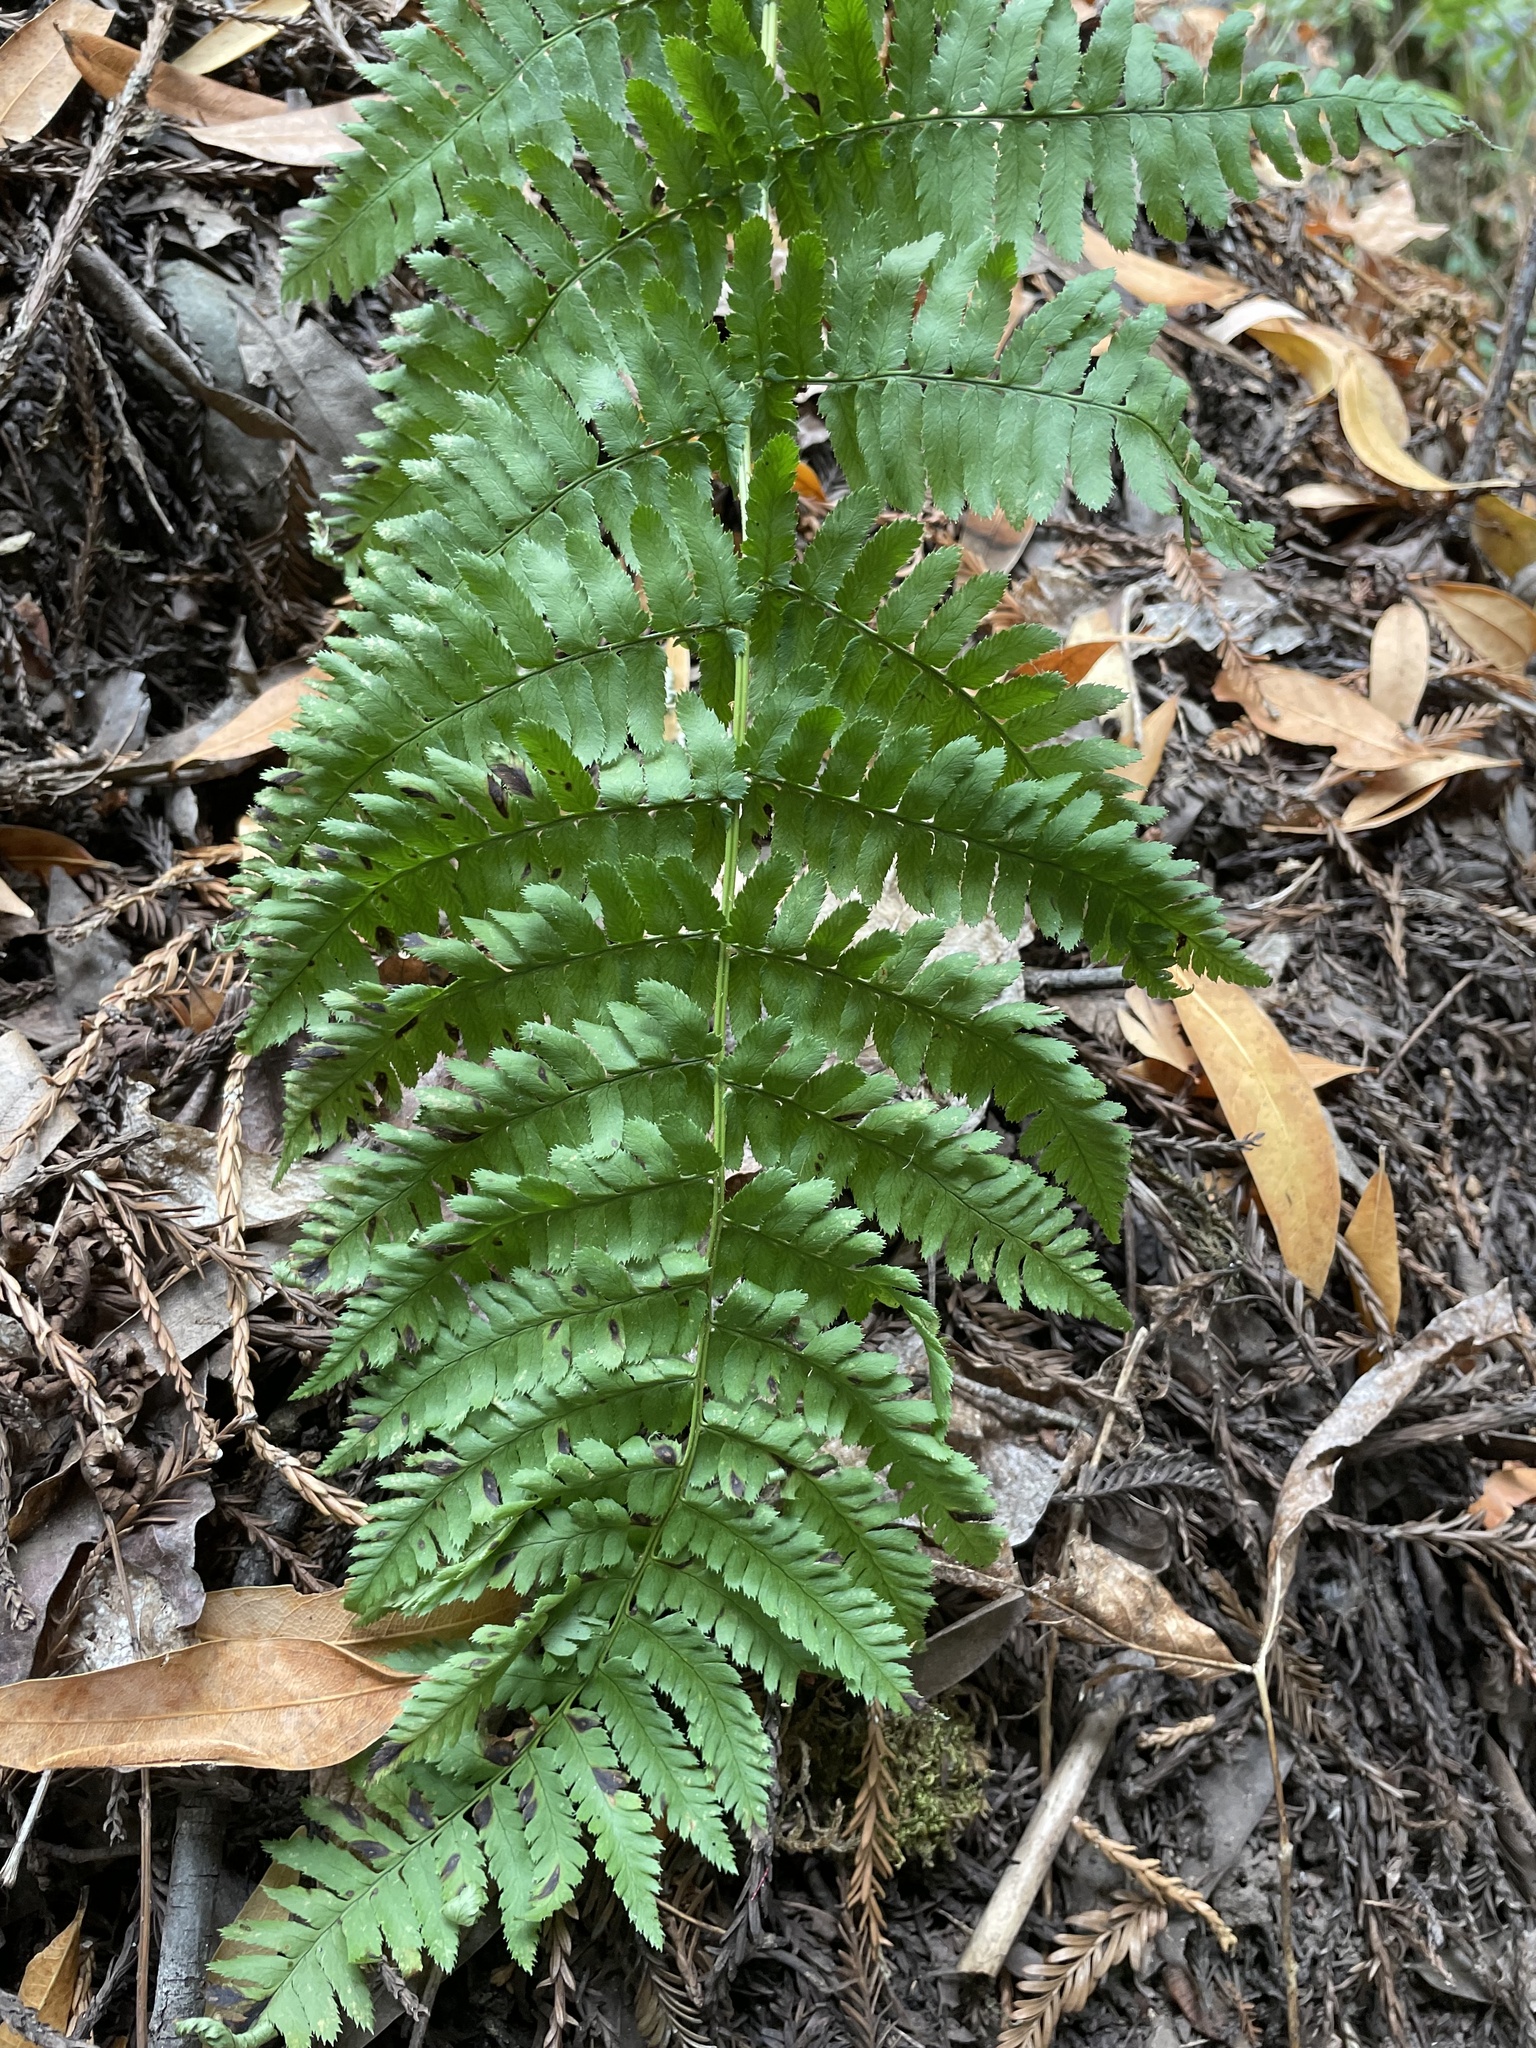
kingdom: Plantae
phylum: Tracheophyta
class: Polypodiopsida
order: Polypodiales
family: Dryopteridaceae
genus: Dryopteris
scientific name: Dryopteris arguta
